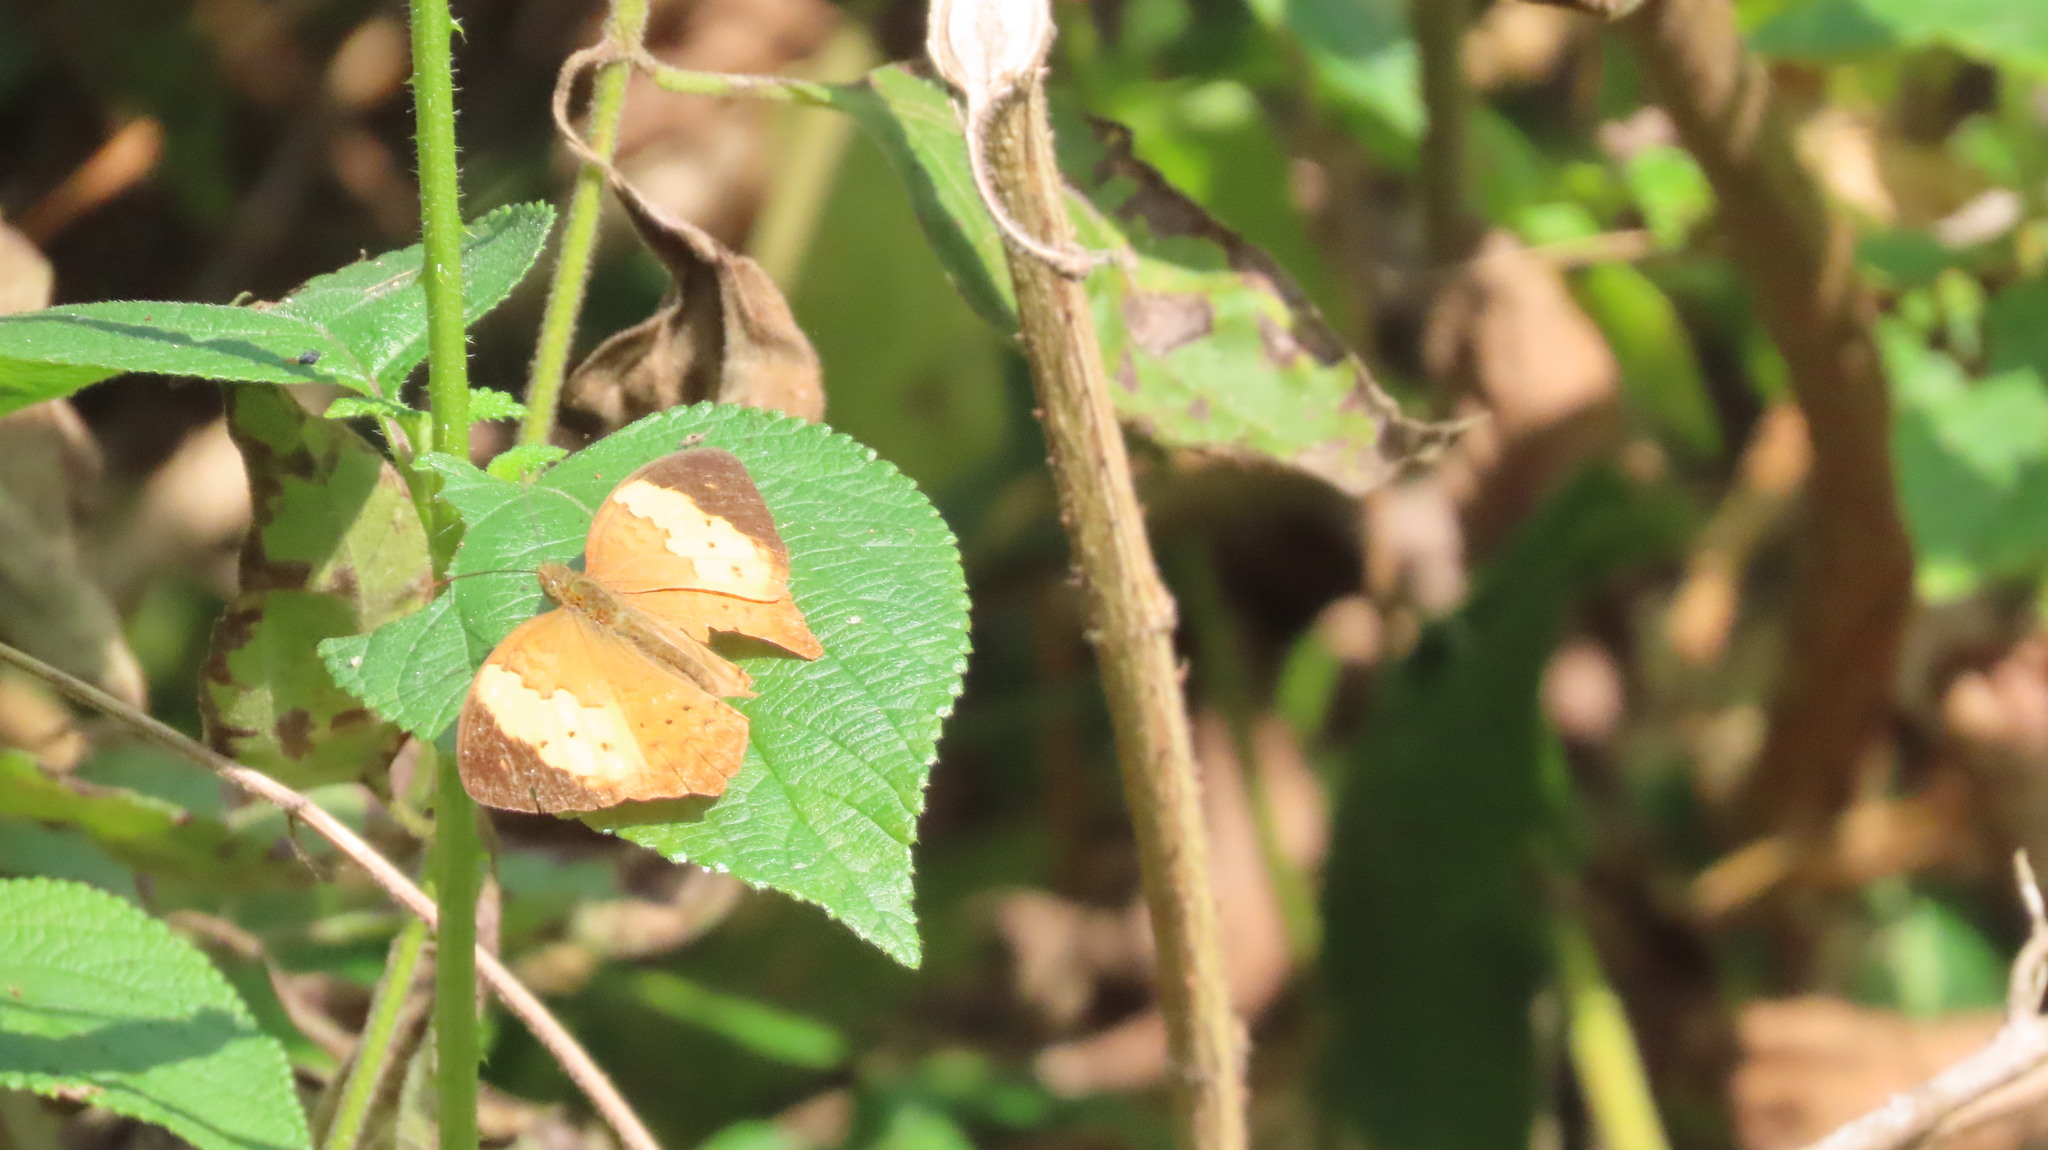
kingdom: Animalia
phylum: Arthropoda
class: Insecta
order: Lepidoptera
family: Nymphalidae
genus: Cupha
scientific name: Cupha erymanthis
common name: Rustic
